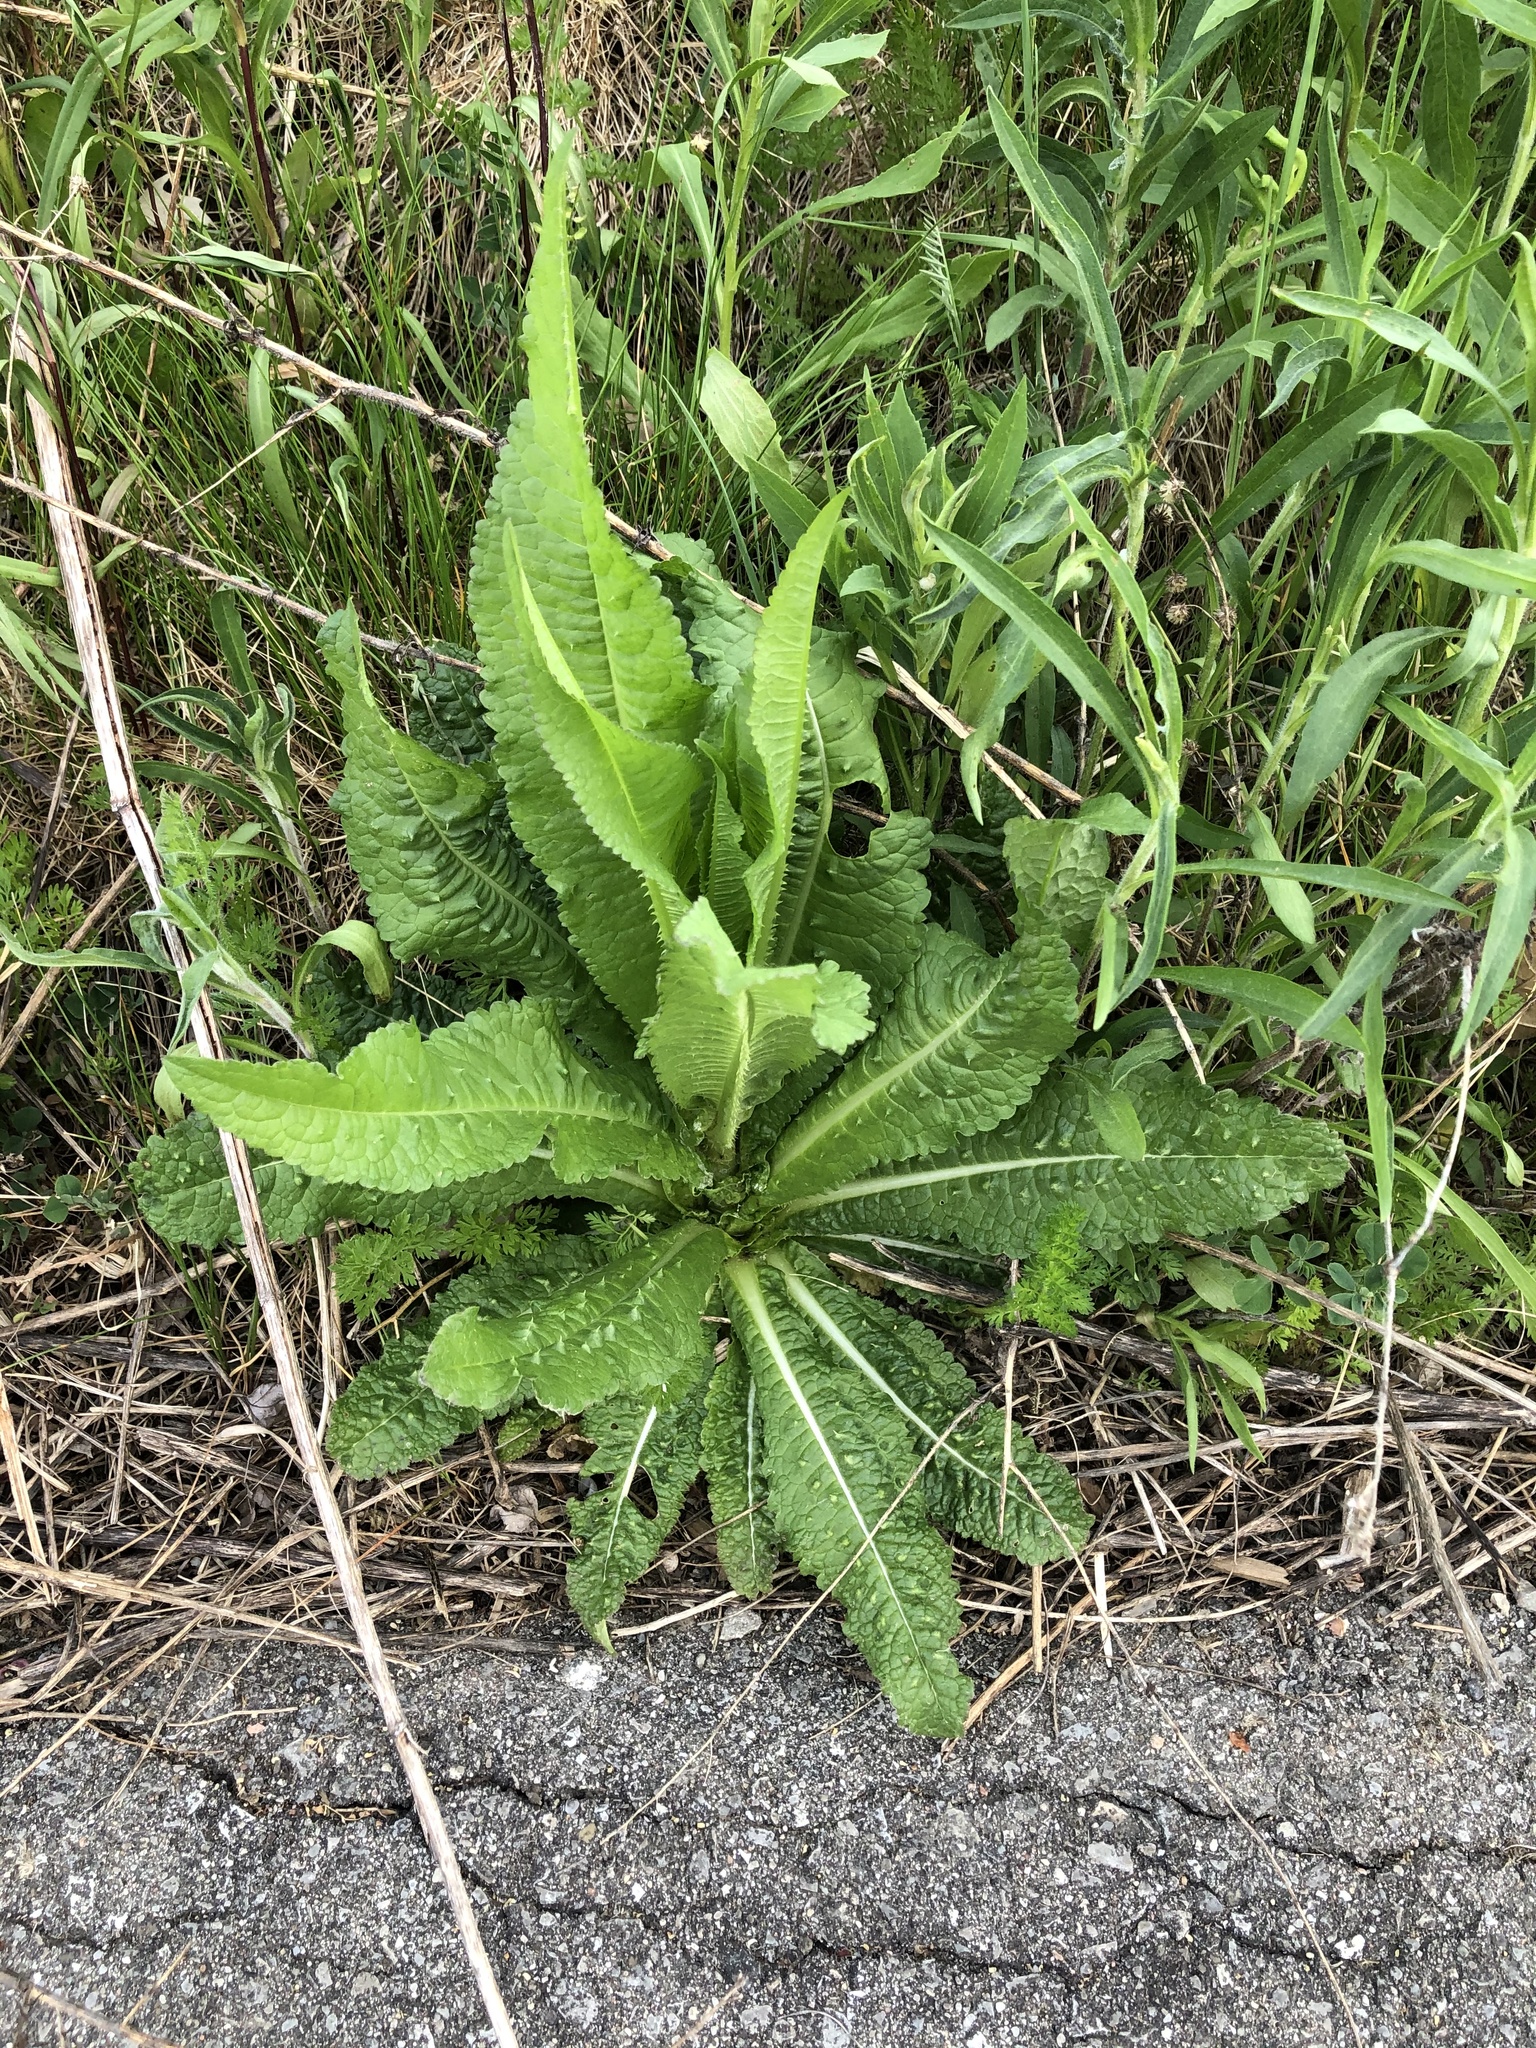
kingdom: Plantae
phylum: Tracheophyta
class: Magnoliopsida
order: Dipsacales
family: Caprifoliaceae
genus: Dipsacus
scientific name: Dipsacus fullonum
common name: Teasel
